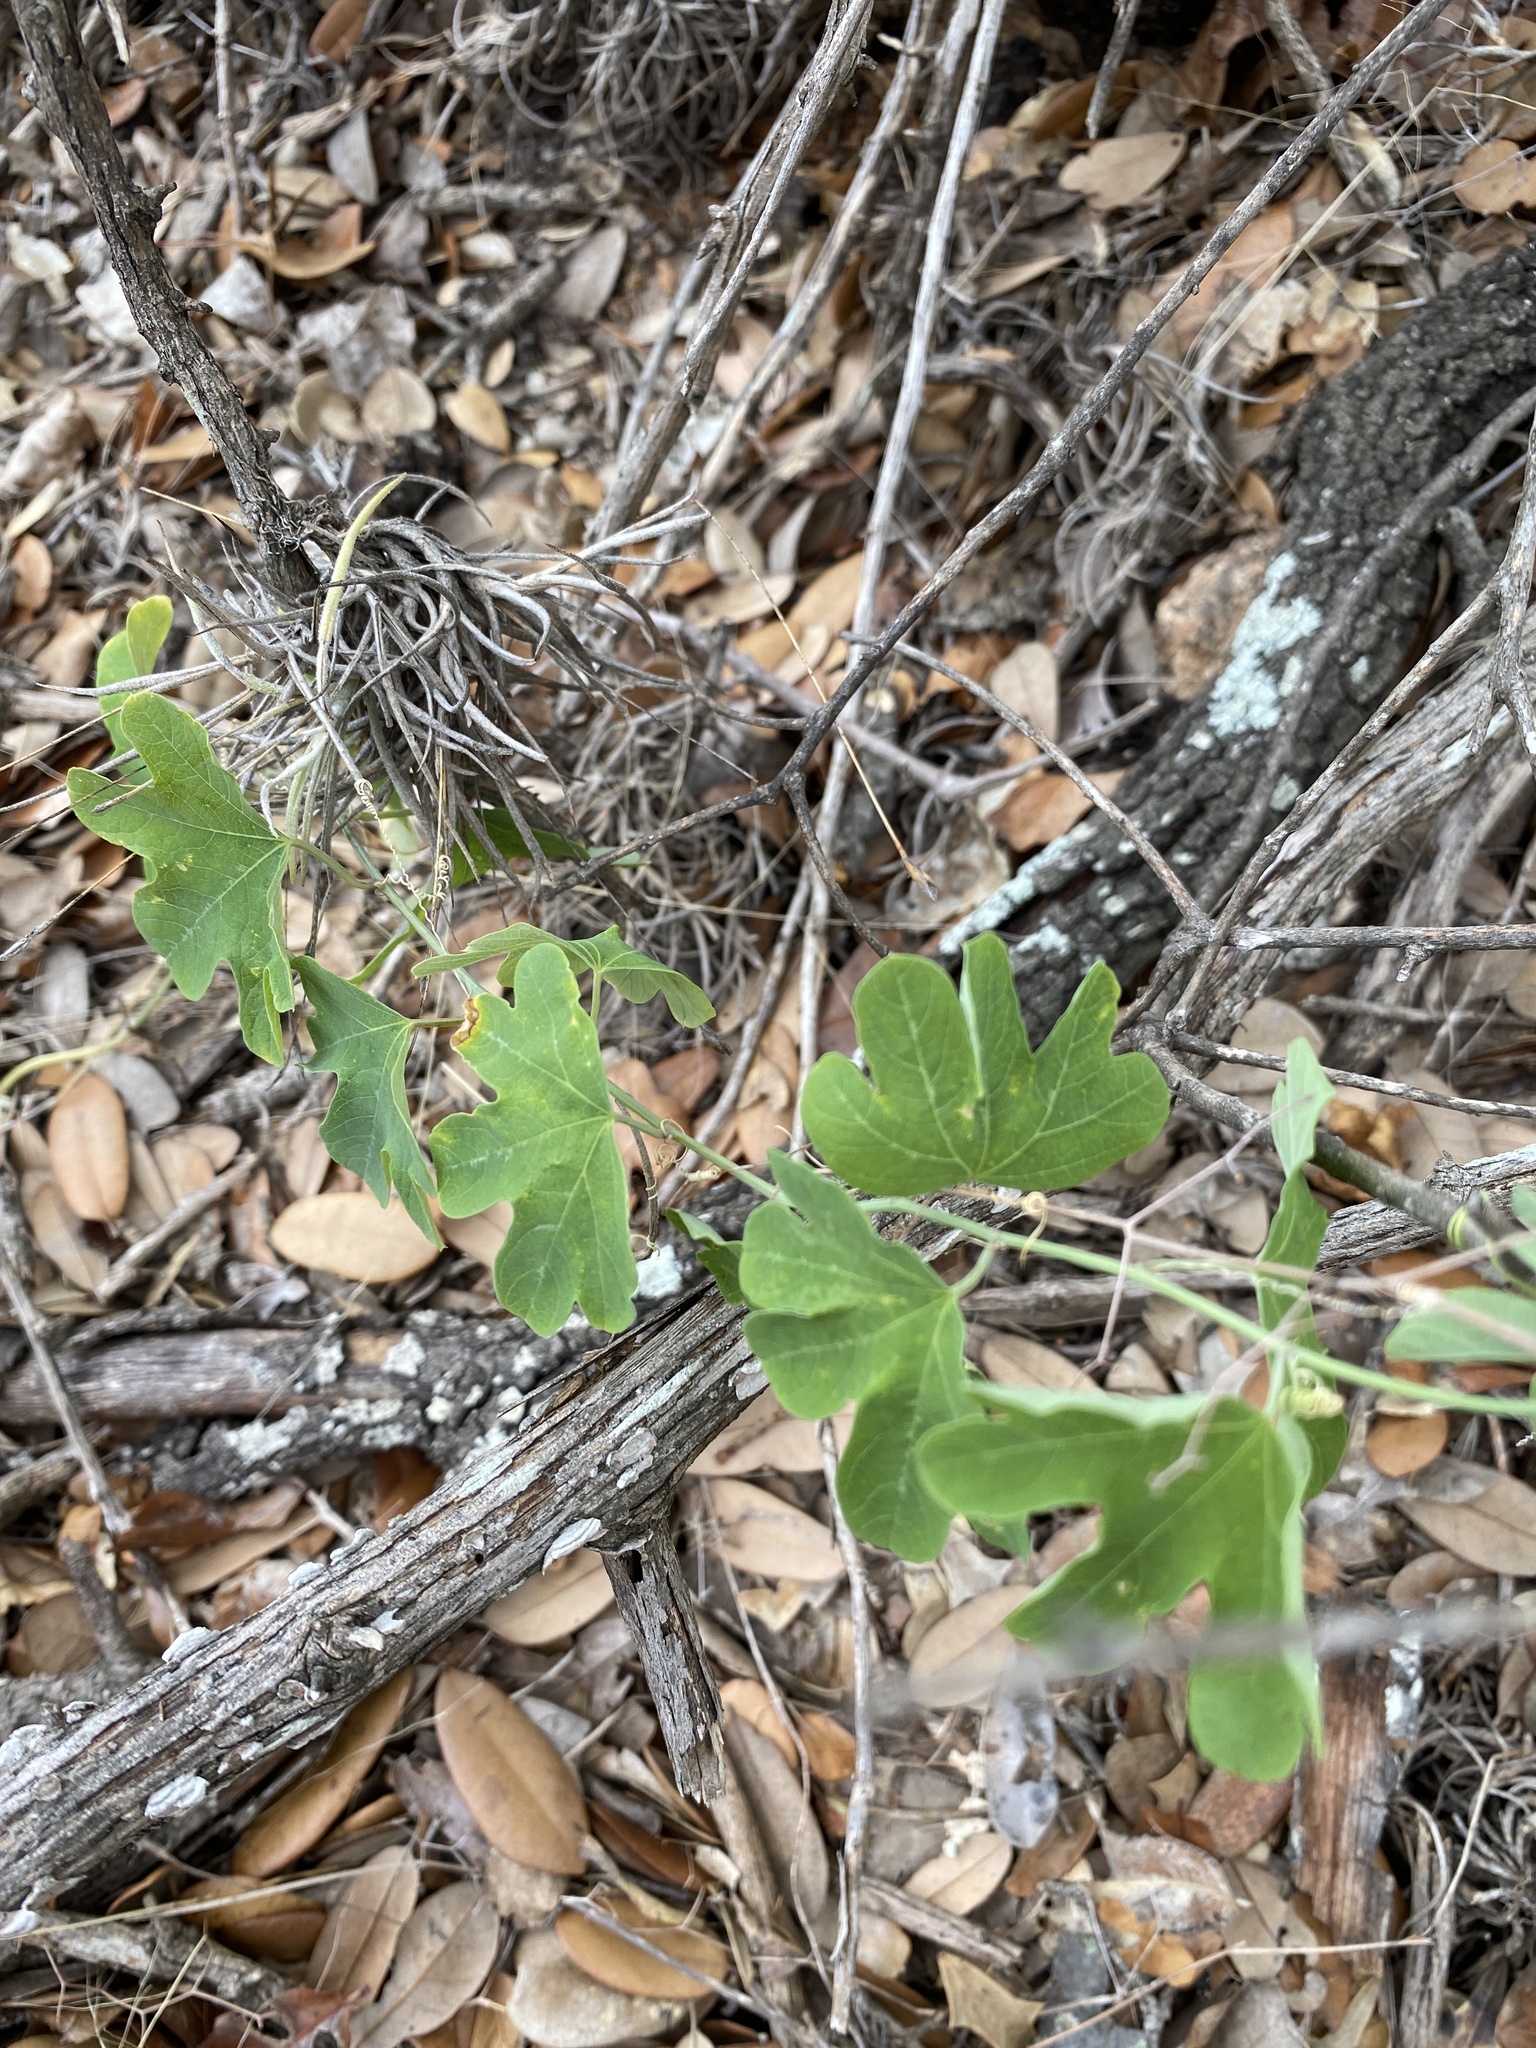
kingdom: Plantae
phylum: Tracheophyta
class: Magnoliopsida
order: Malpighiales
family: Passifloraceae
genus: Passiflora
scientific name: Passiflora affinis
